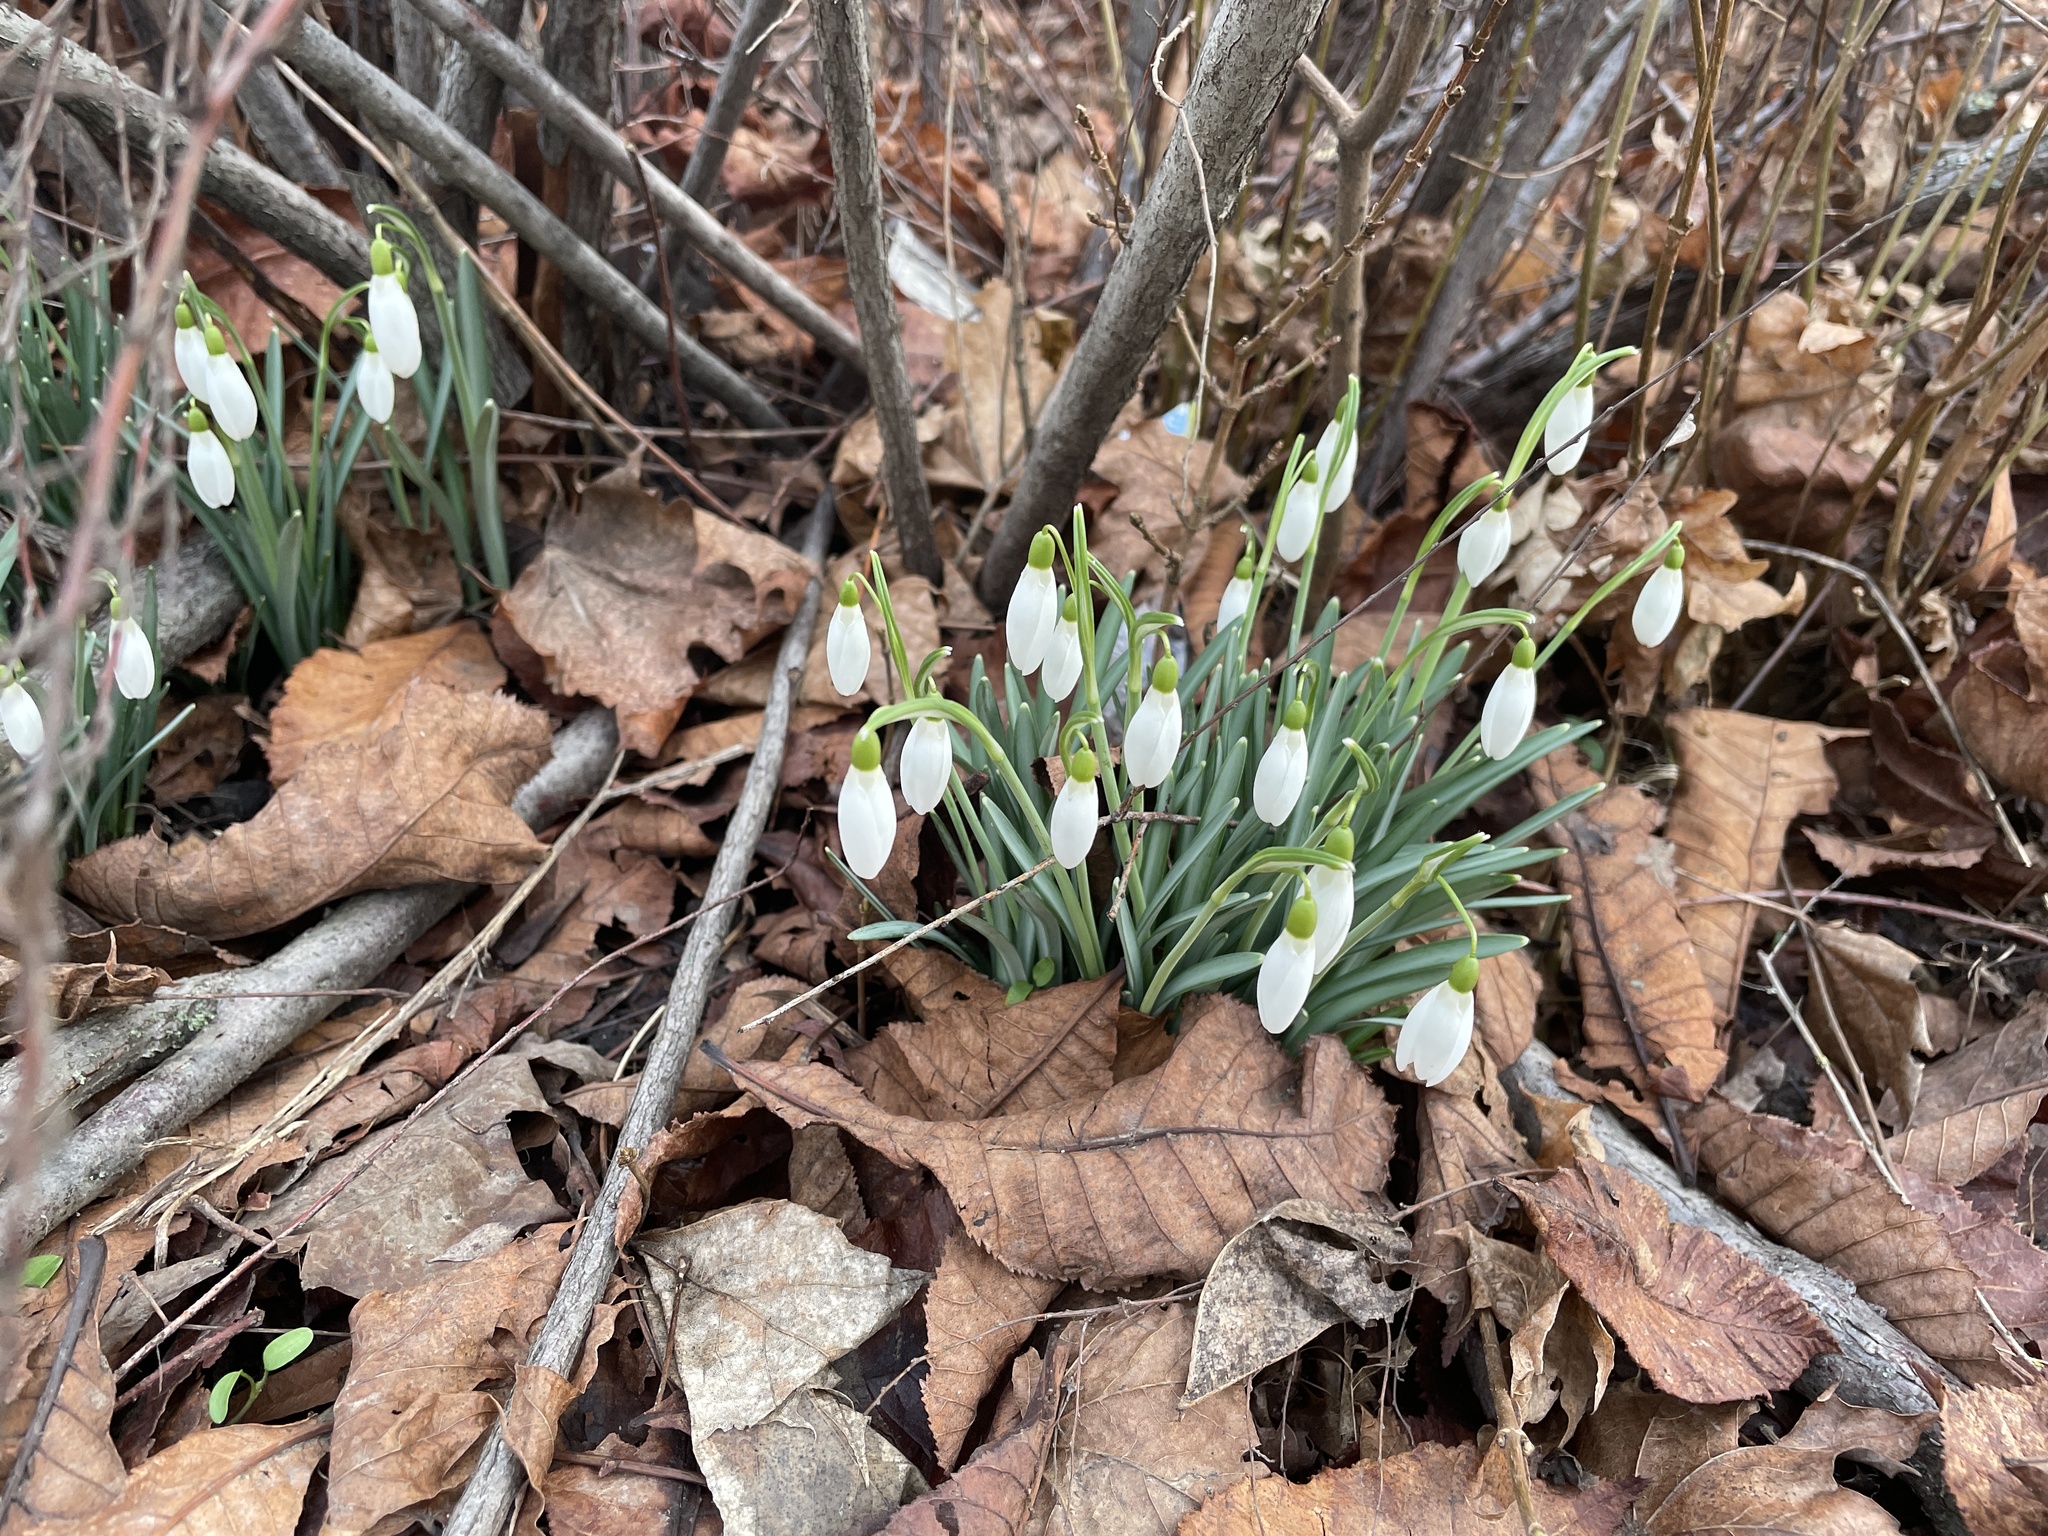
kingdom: Plantae
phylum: Tracheophyta
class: Liliopsida
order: Asparagales
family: Amaryllidaceae
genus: Galanthus
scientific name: Galanthus nivalis
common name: Snowdrop
